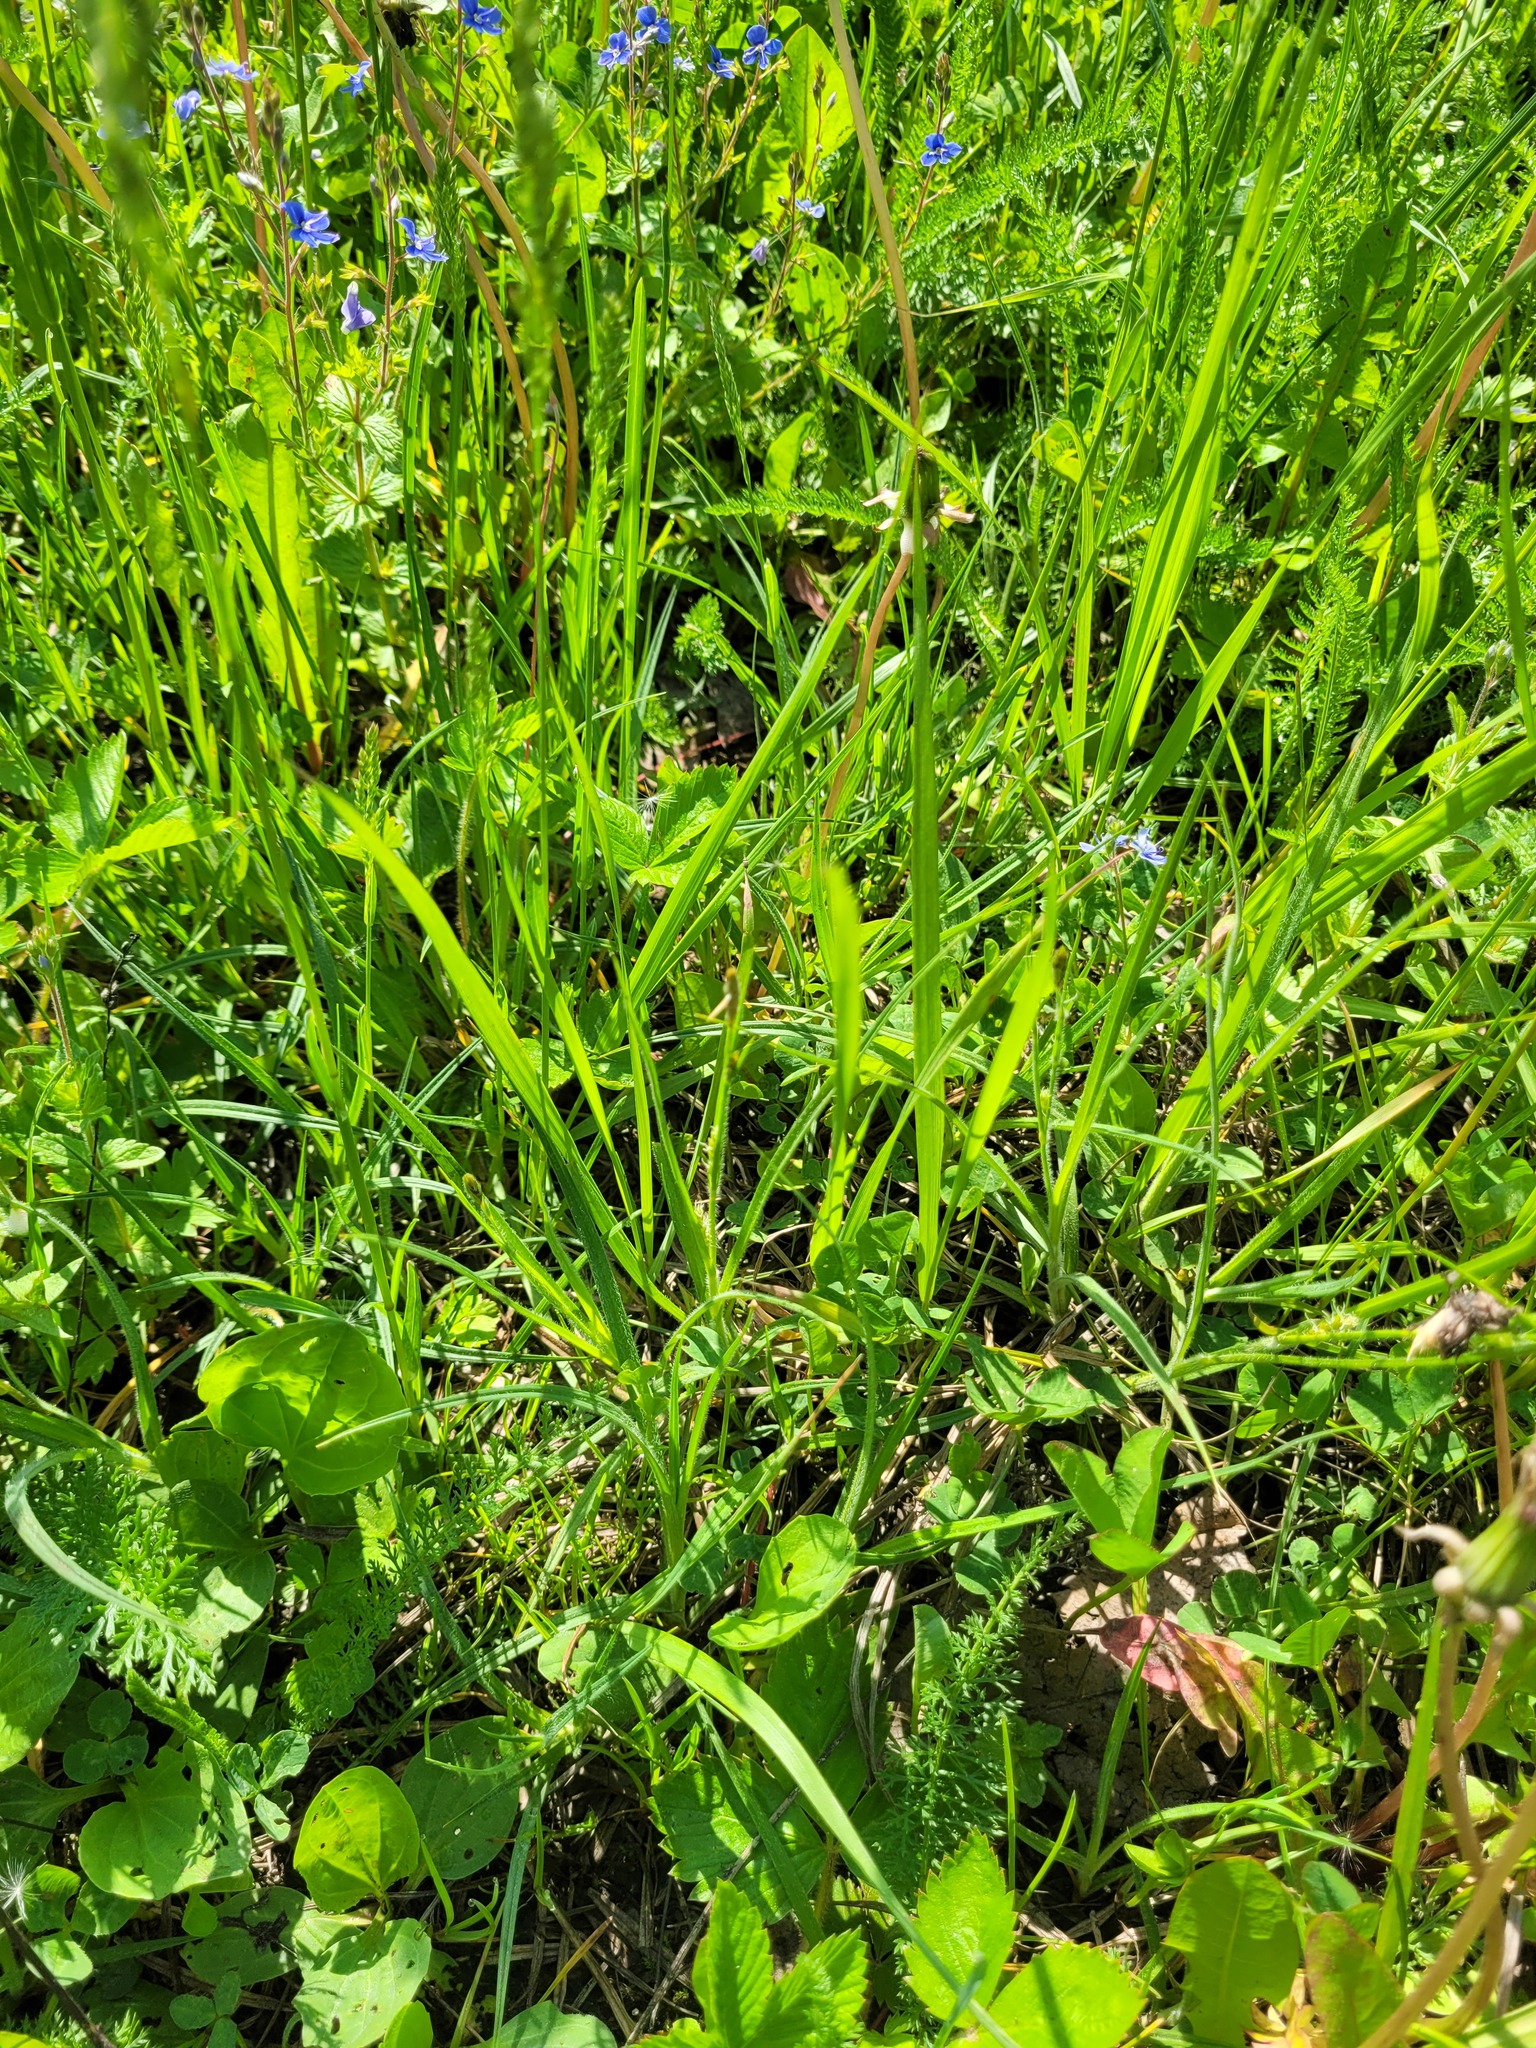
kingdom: Plantae
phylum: Tracheophyta
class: Liliopsida
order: Poales
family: Cyperaceae
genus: Carex
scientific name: Carex hirta
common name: Hairy sedge
